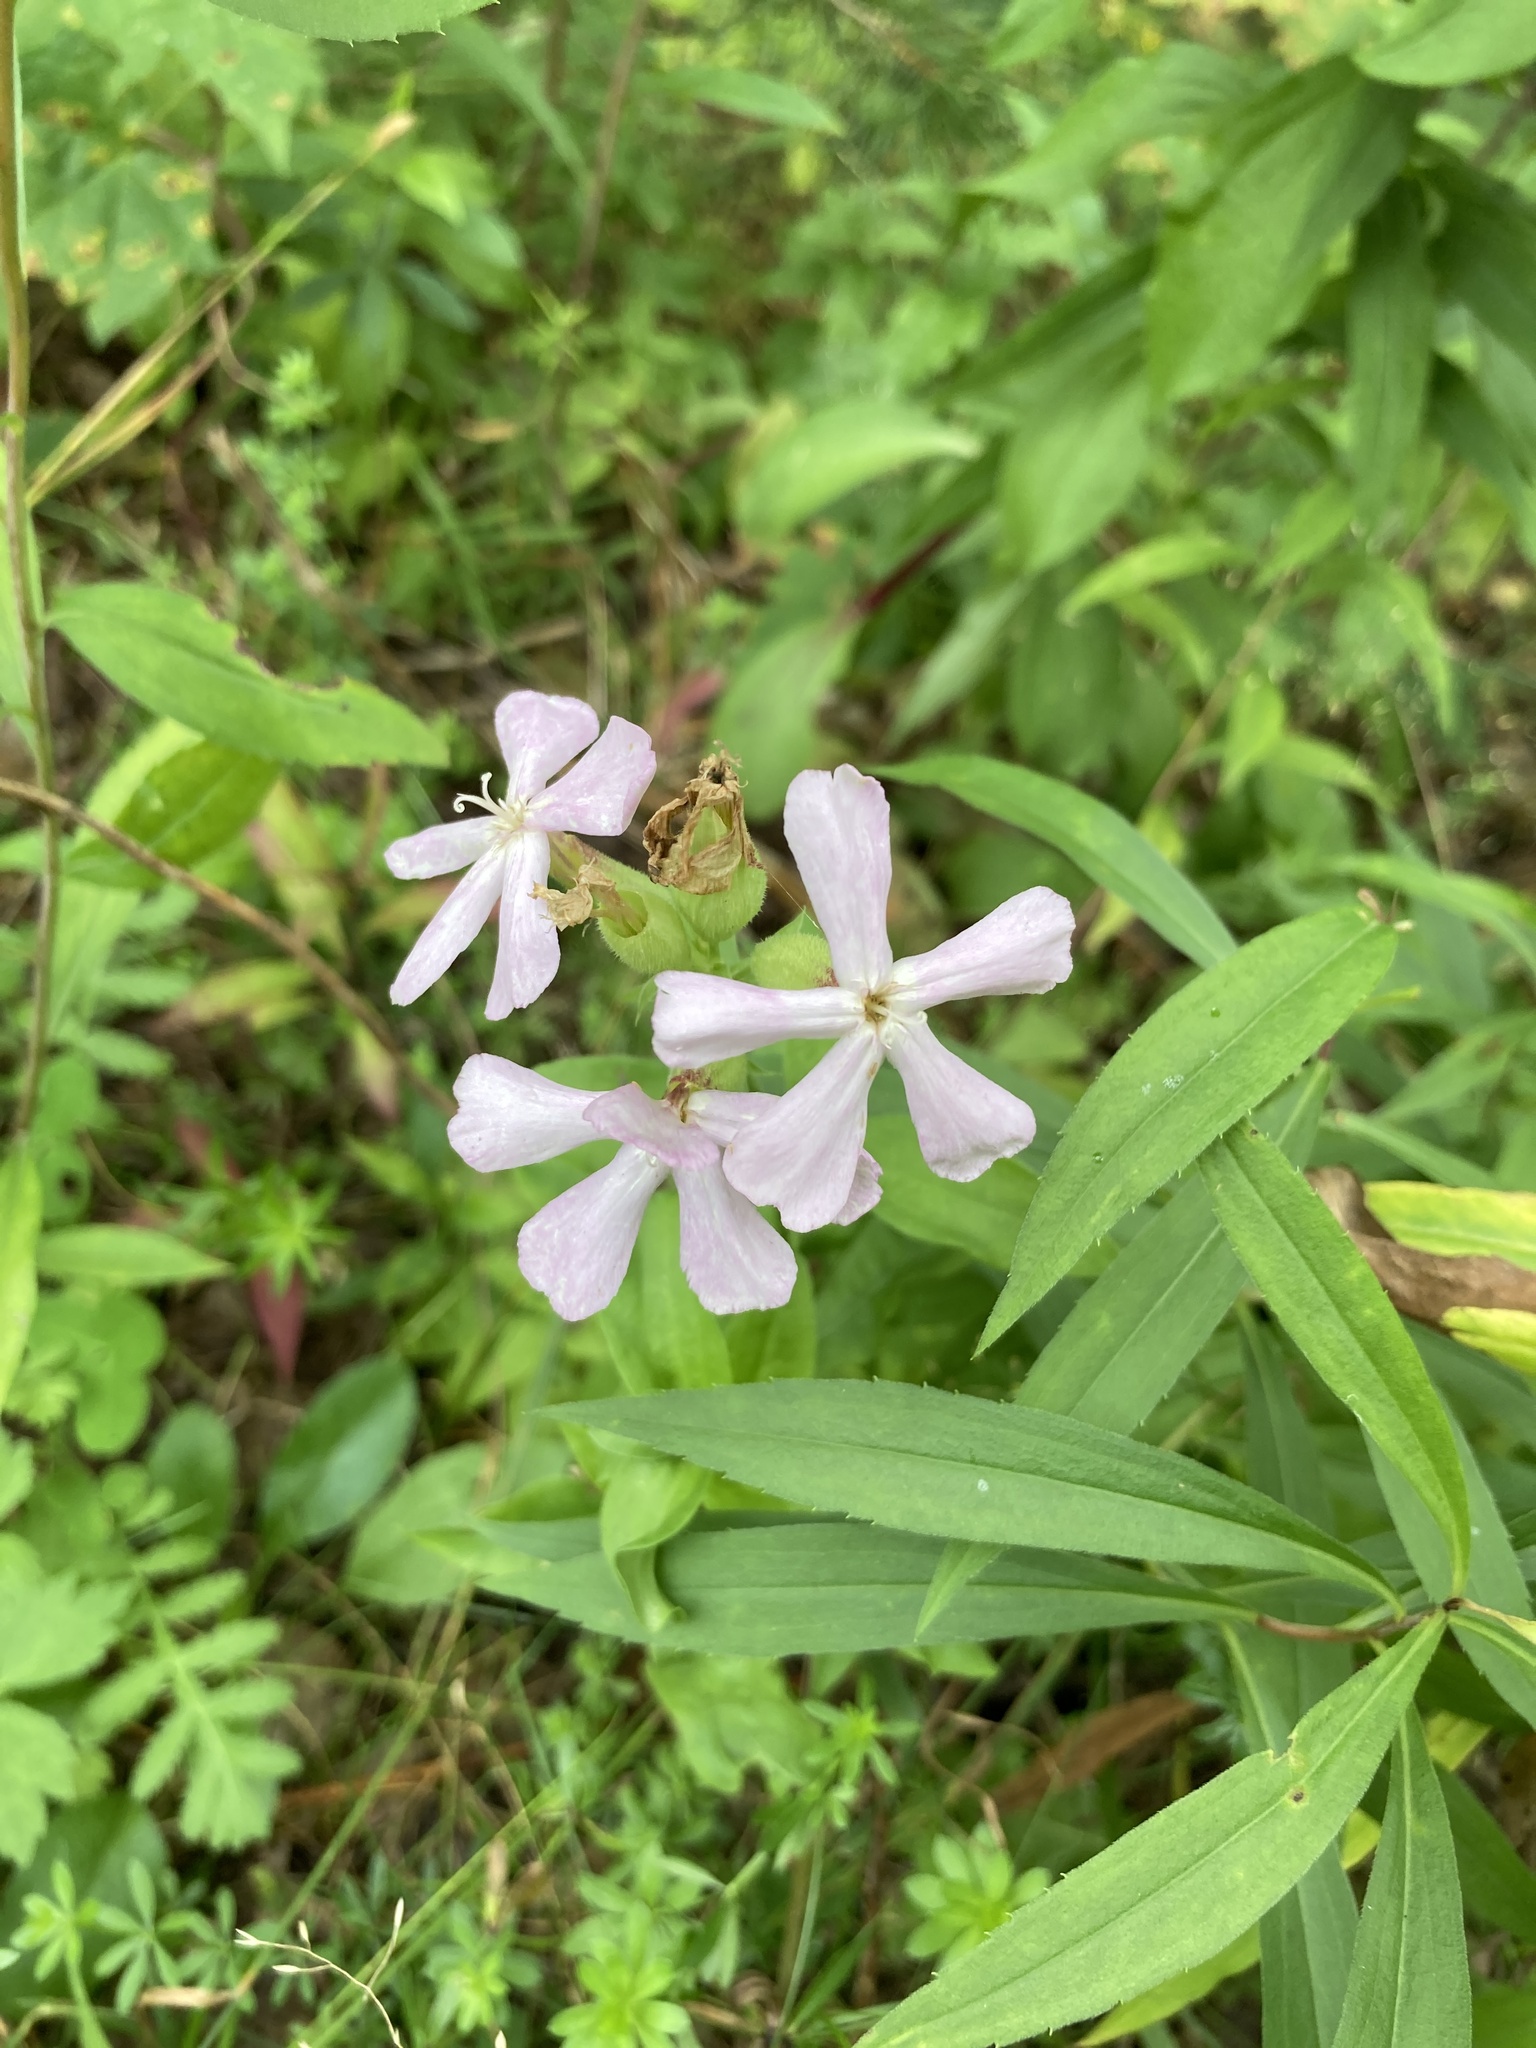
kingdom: Plantae
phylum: Tracheophyta
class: Magnoliopsida
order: Caryophyllales
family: Caryophyllaceae
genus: Saponaria
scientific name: Saponaria officinalis
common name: Soapwort
